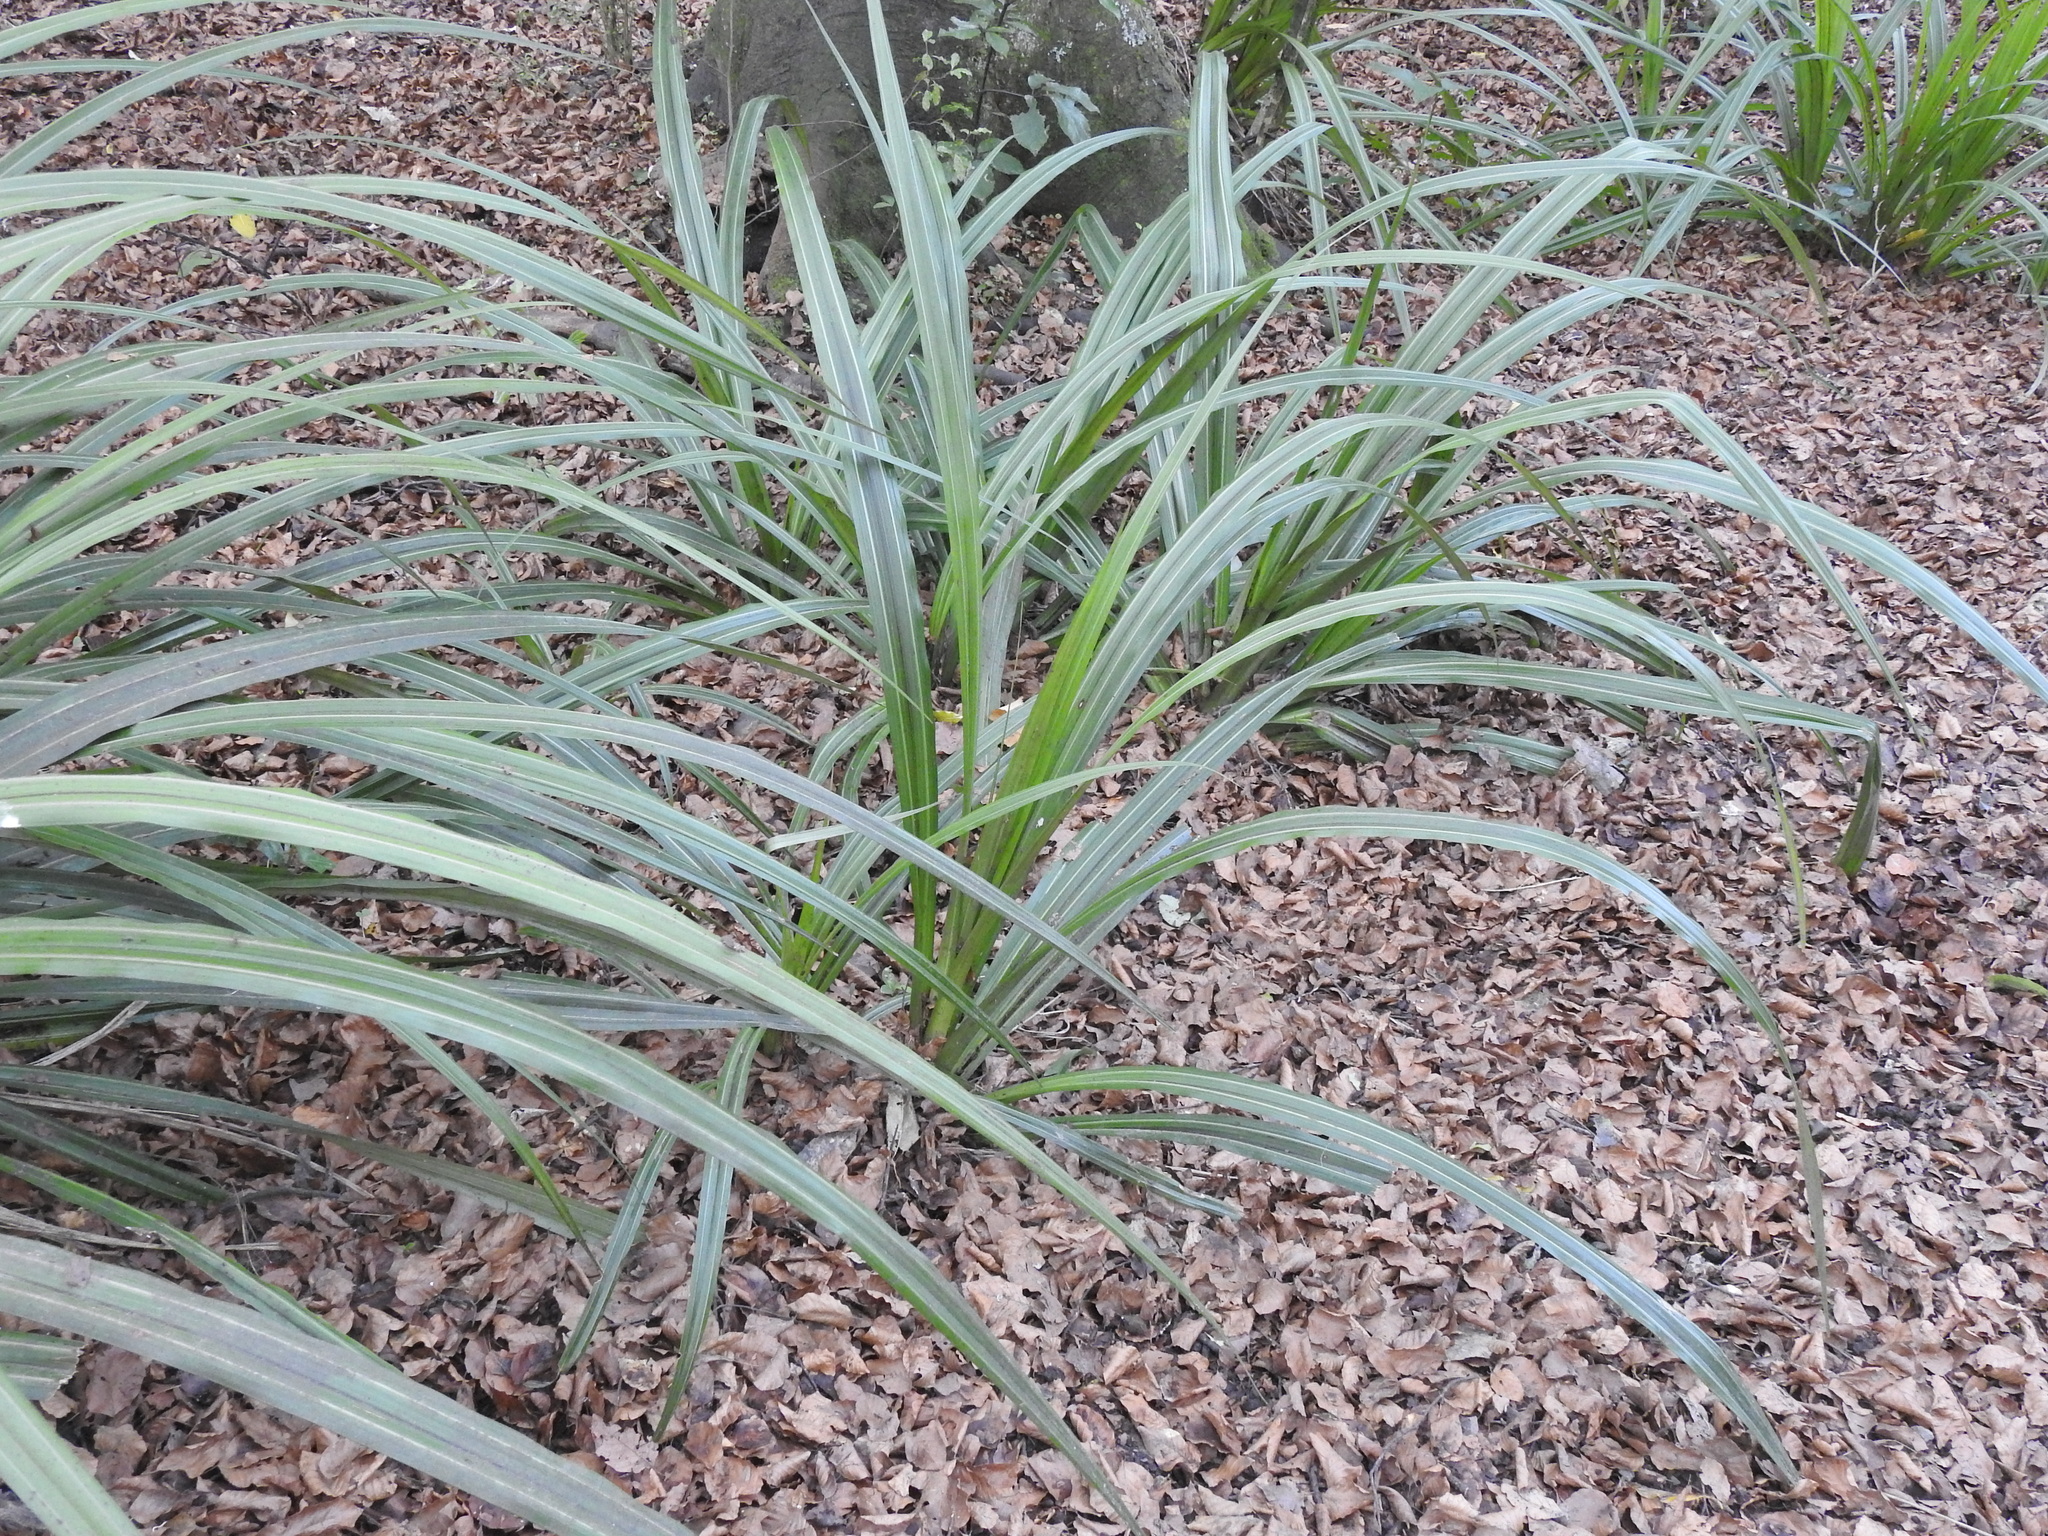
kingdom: Plantae
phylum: Tracheophyta
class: Liliopsida
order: Asparagales
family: Asteliaceae
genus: Astelia
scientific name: Astelia fragrans
